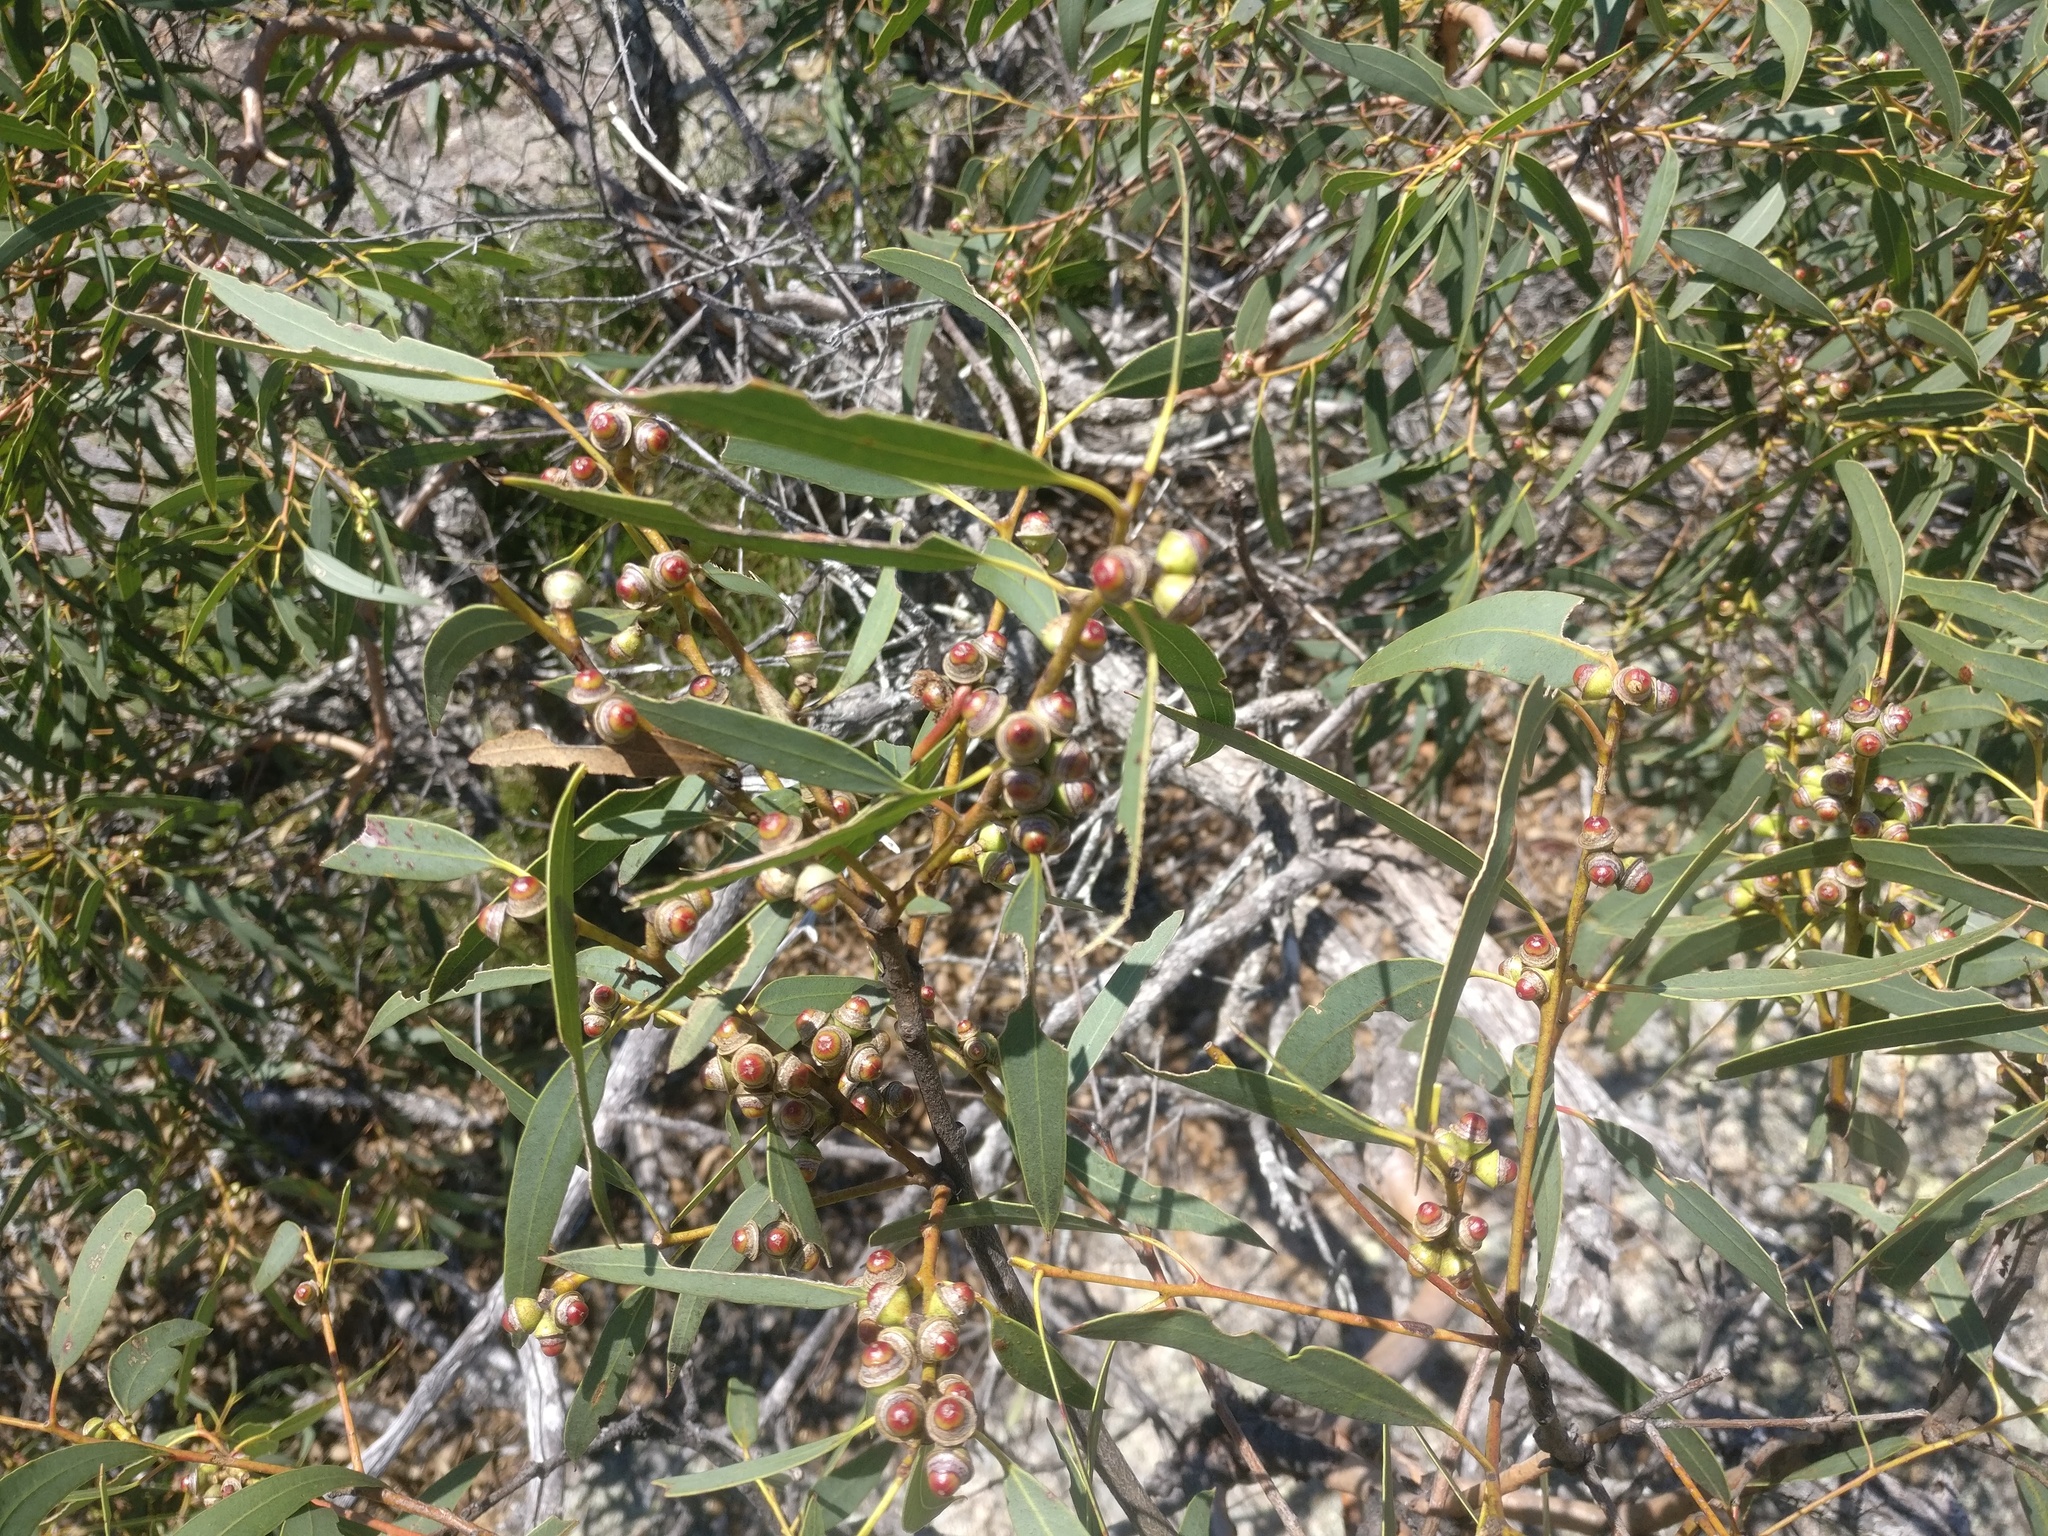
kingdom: Plantae
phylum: Tracheophyta
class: Magnoliopsida
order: Myrtales
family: Myrtaceae
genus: Eucalyptus
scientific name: Eucalyptus exserta
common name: Peppermint-bendo
